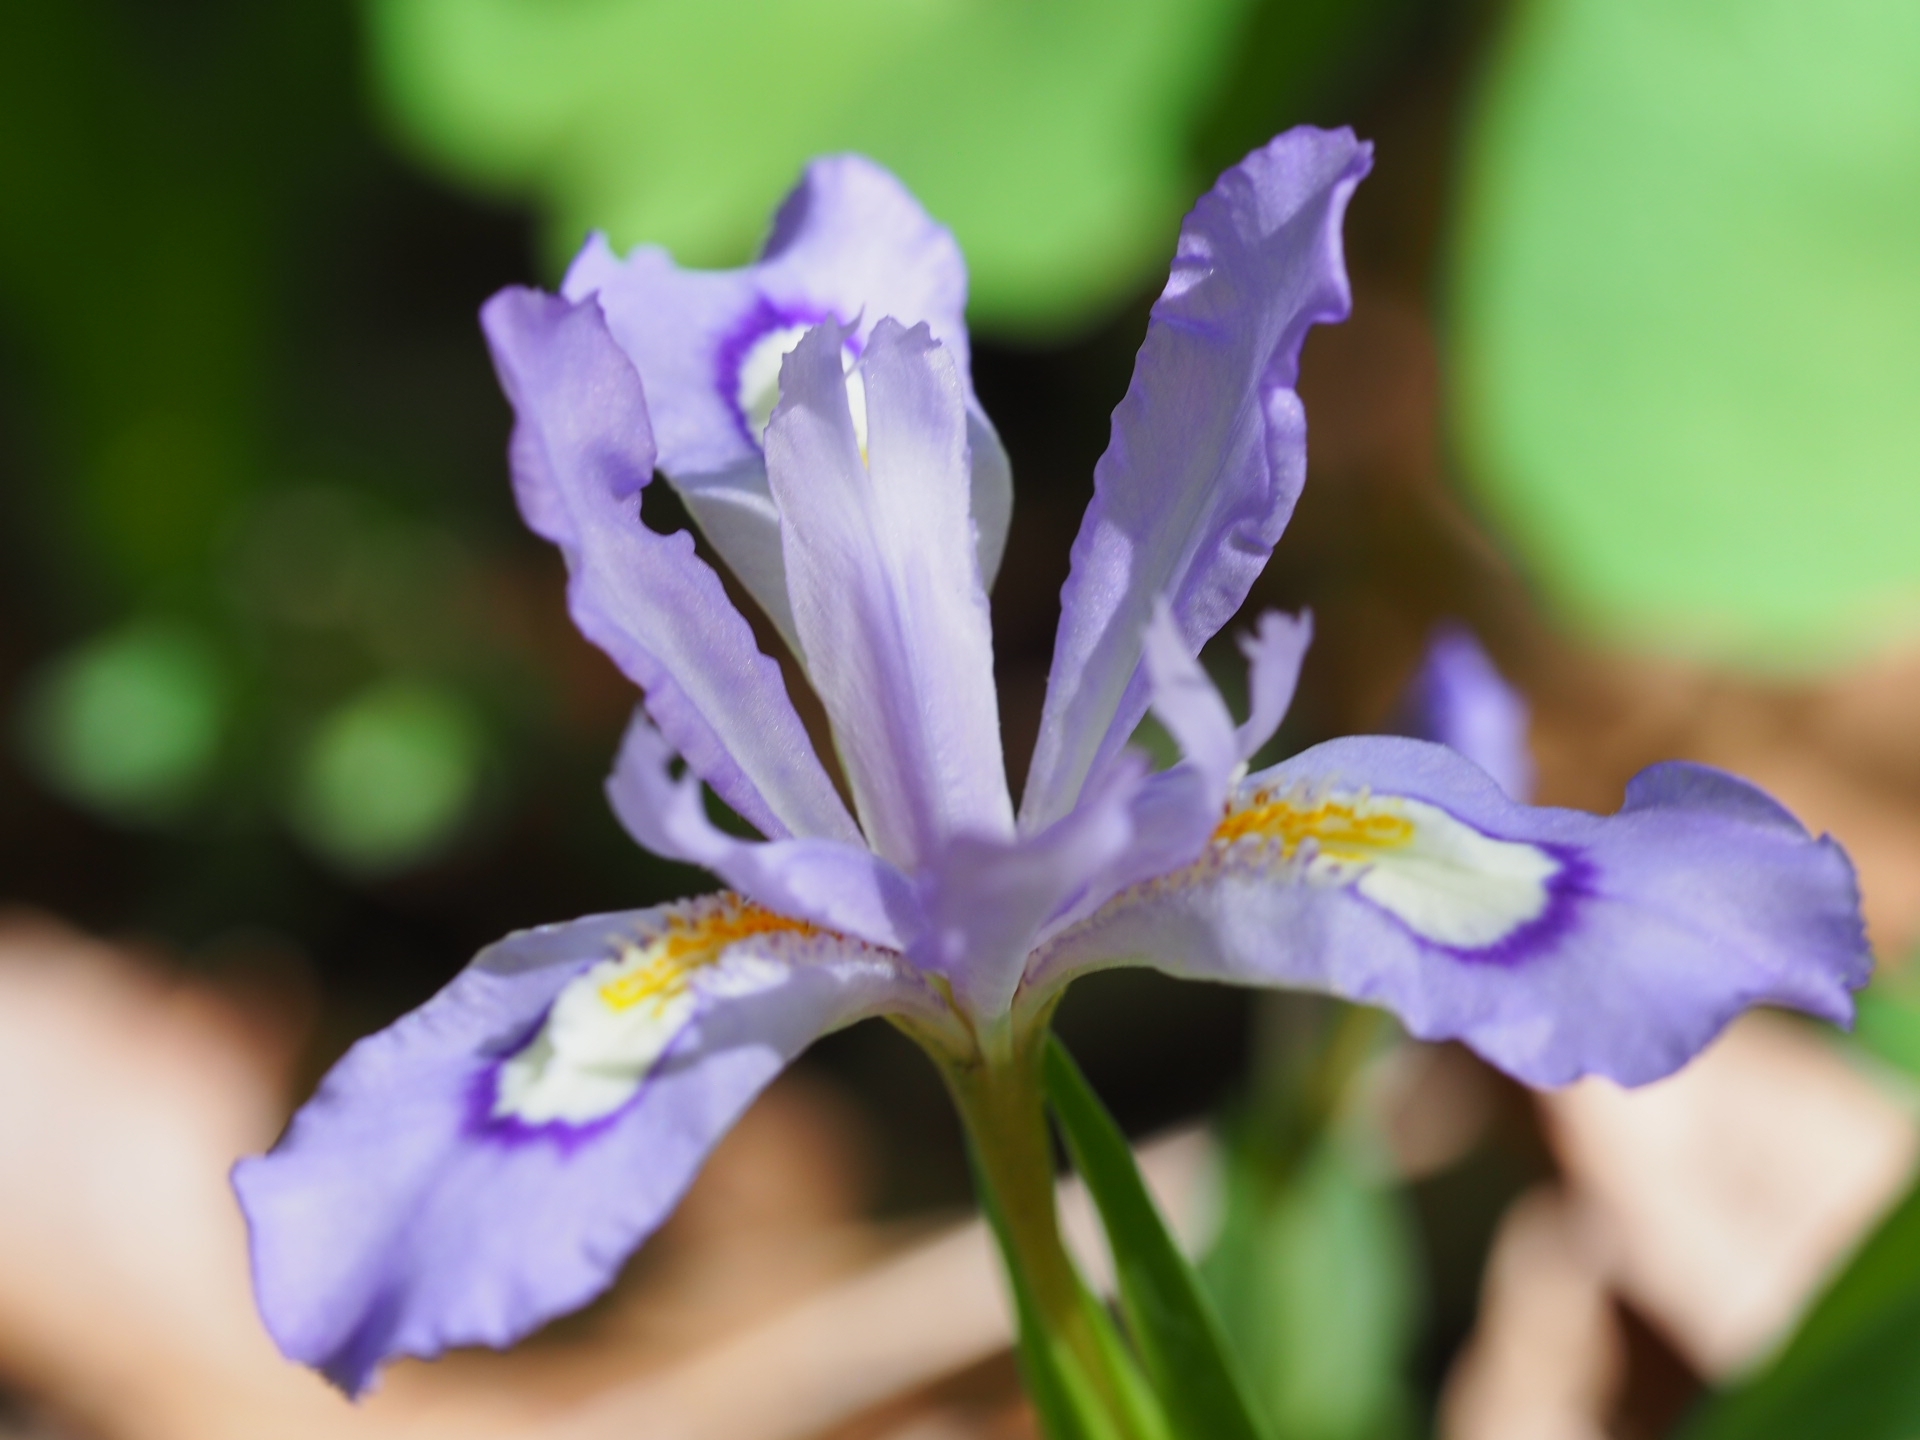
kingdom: Plantae
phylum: Tracheophyta
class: Liliopsida
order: Asparagales
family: Iridaceae
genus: Iris
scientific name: Iris cristata
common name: Crested iris
